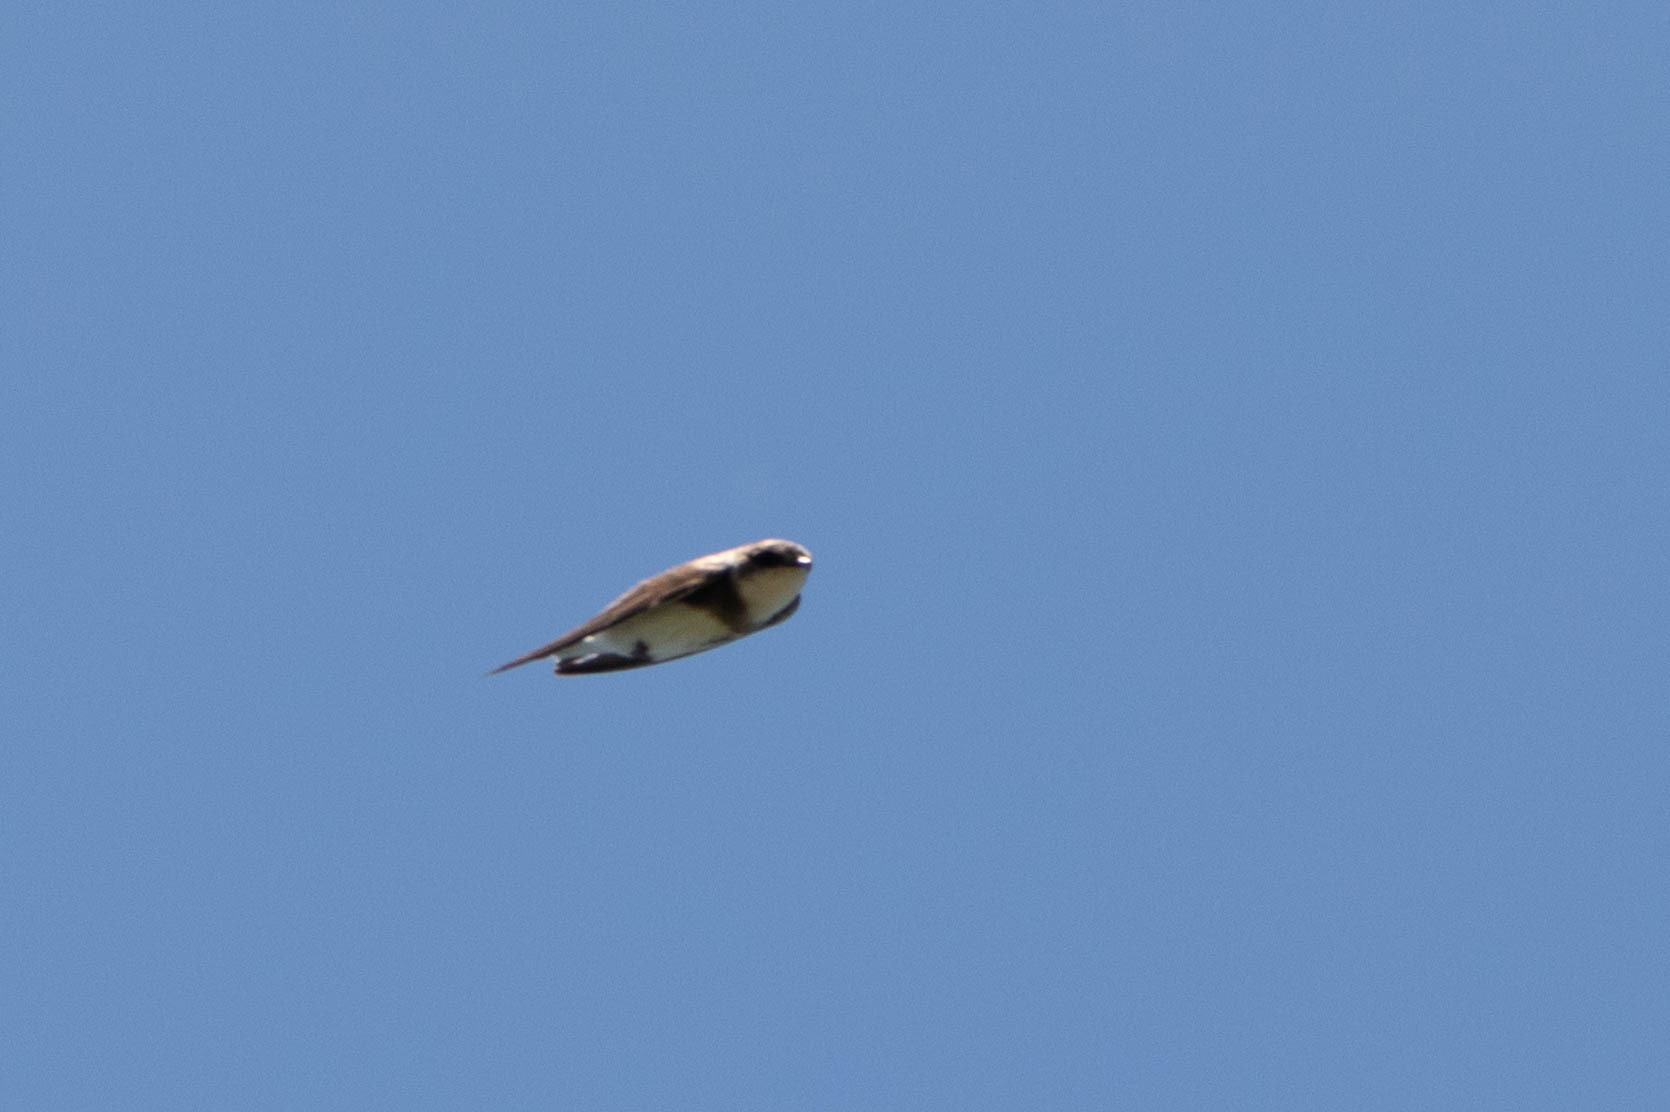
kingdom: Animalia
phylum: Chordata
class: Aves
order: Passeriformes
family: Hirundinidae
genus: Riparia
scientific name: Riparia riparia
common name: Sand martin
